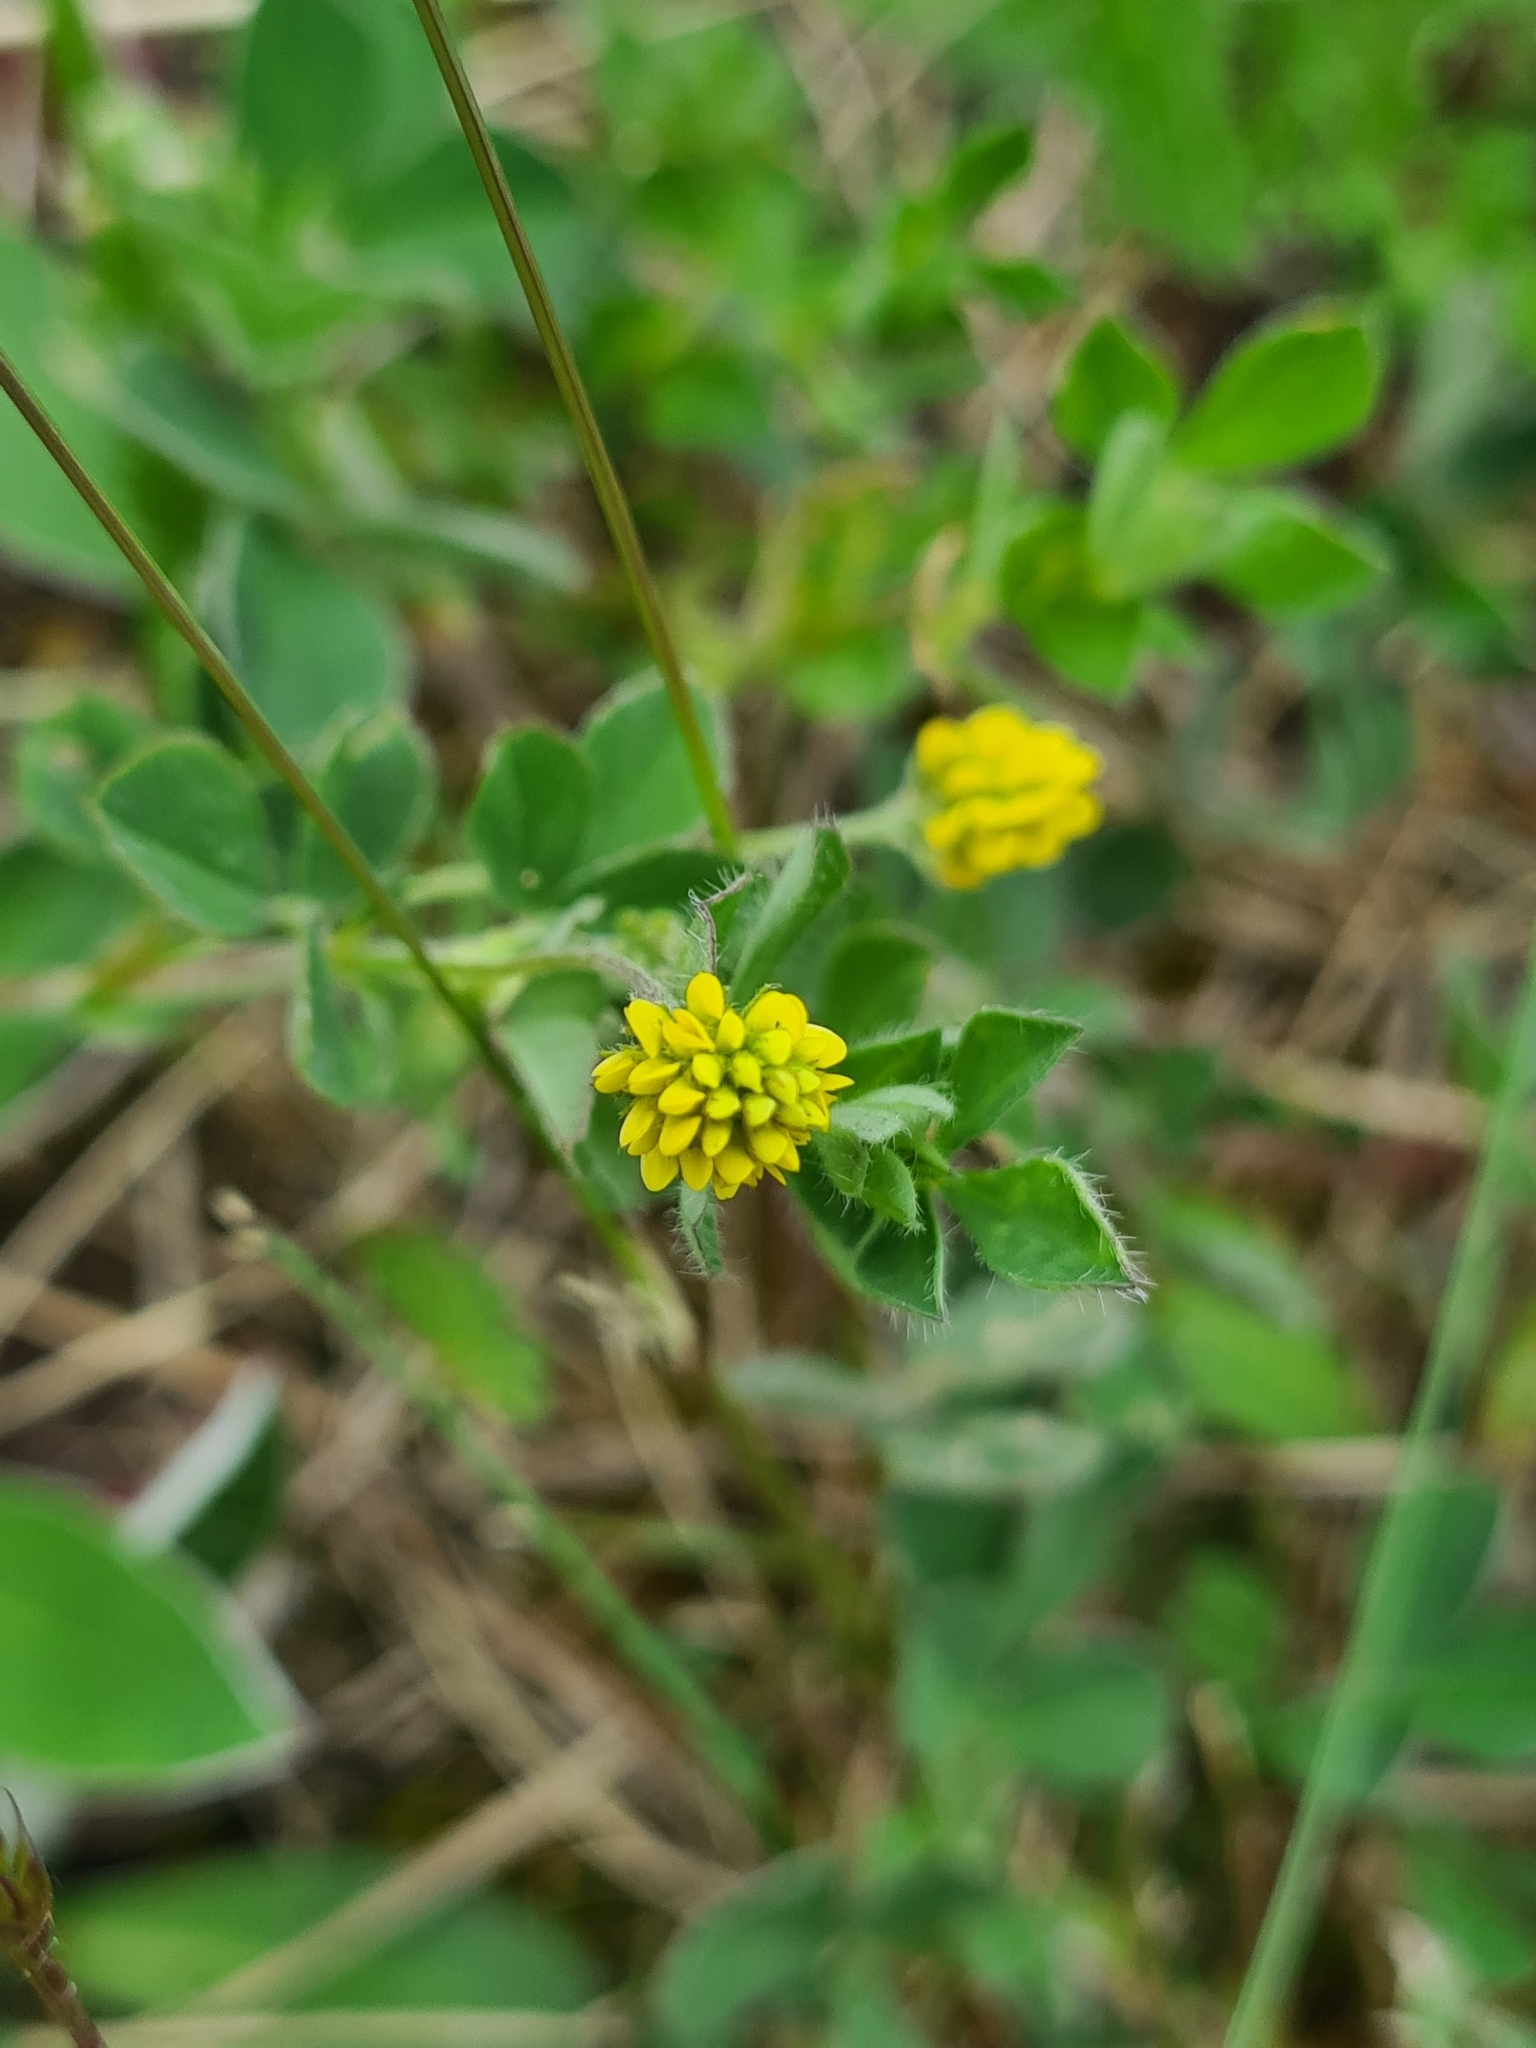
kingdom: Plantae
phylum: Tracheophyta
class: Magnoliopsida
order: Fabales
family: Fabaceae
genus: Medicago
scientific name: Medicago lupulina
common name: Black medick
